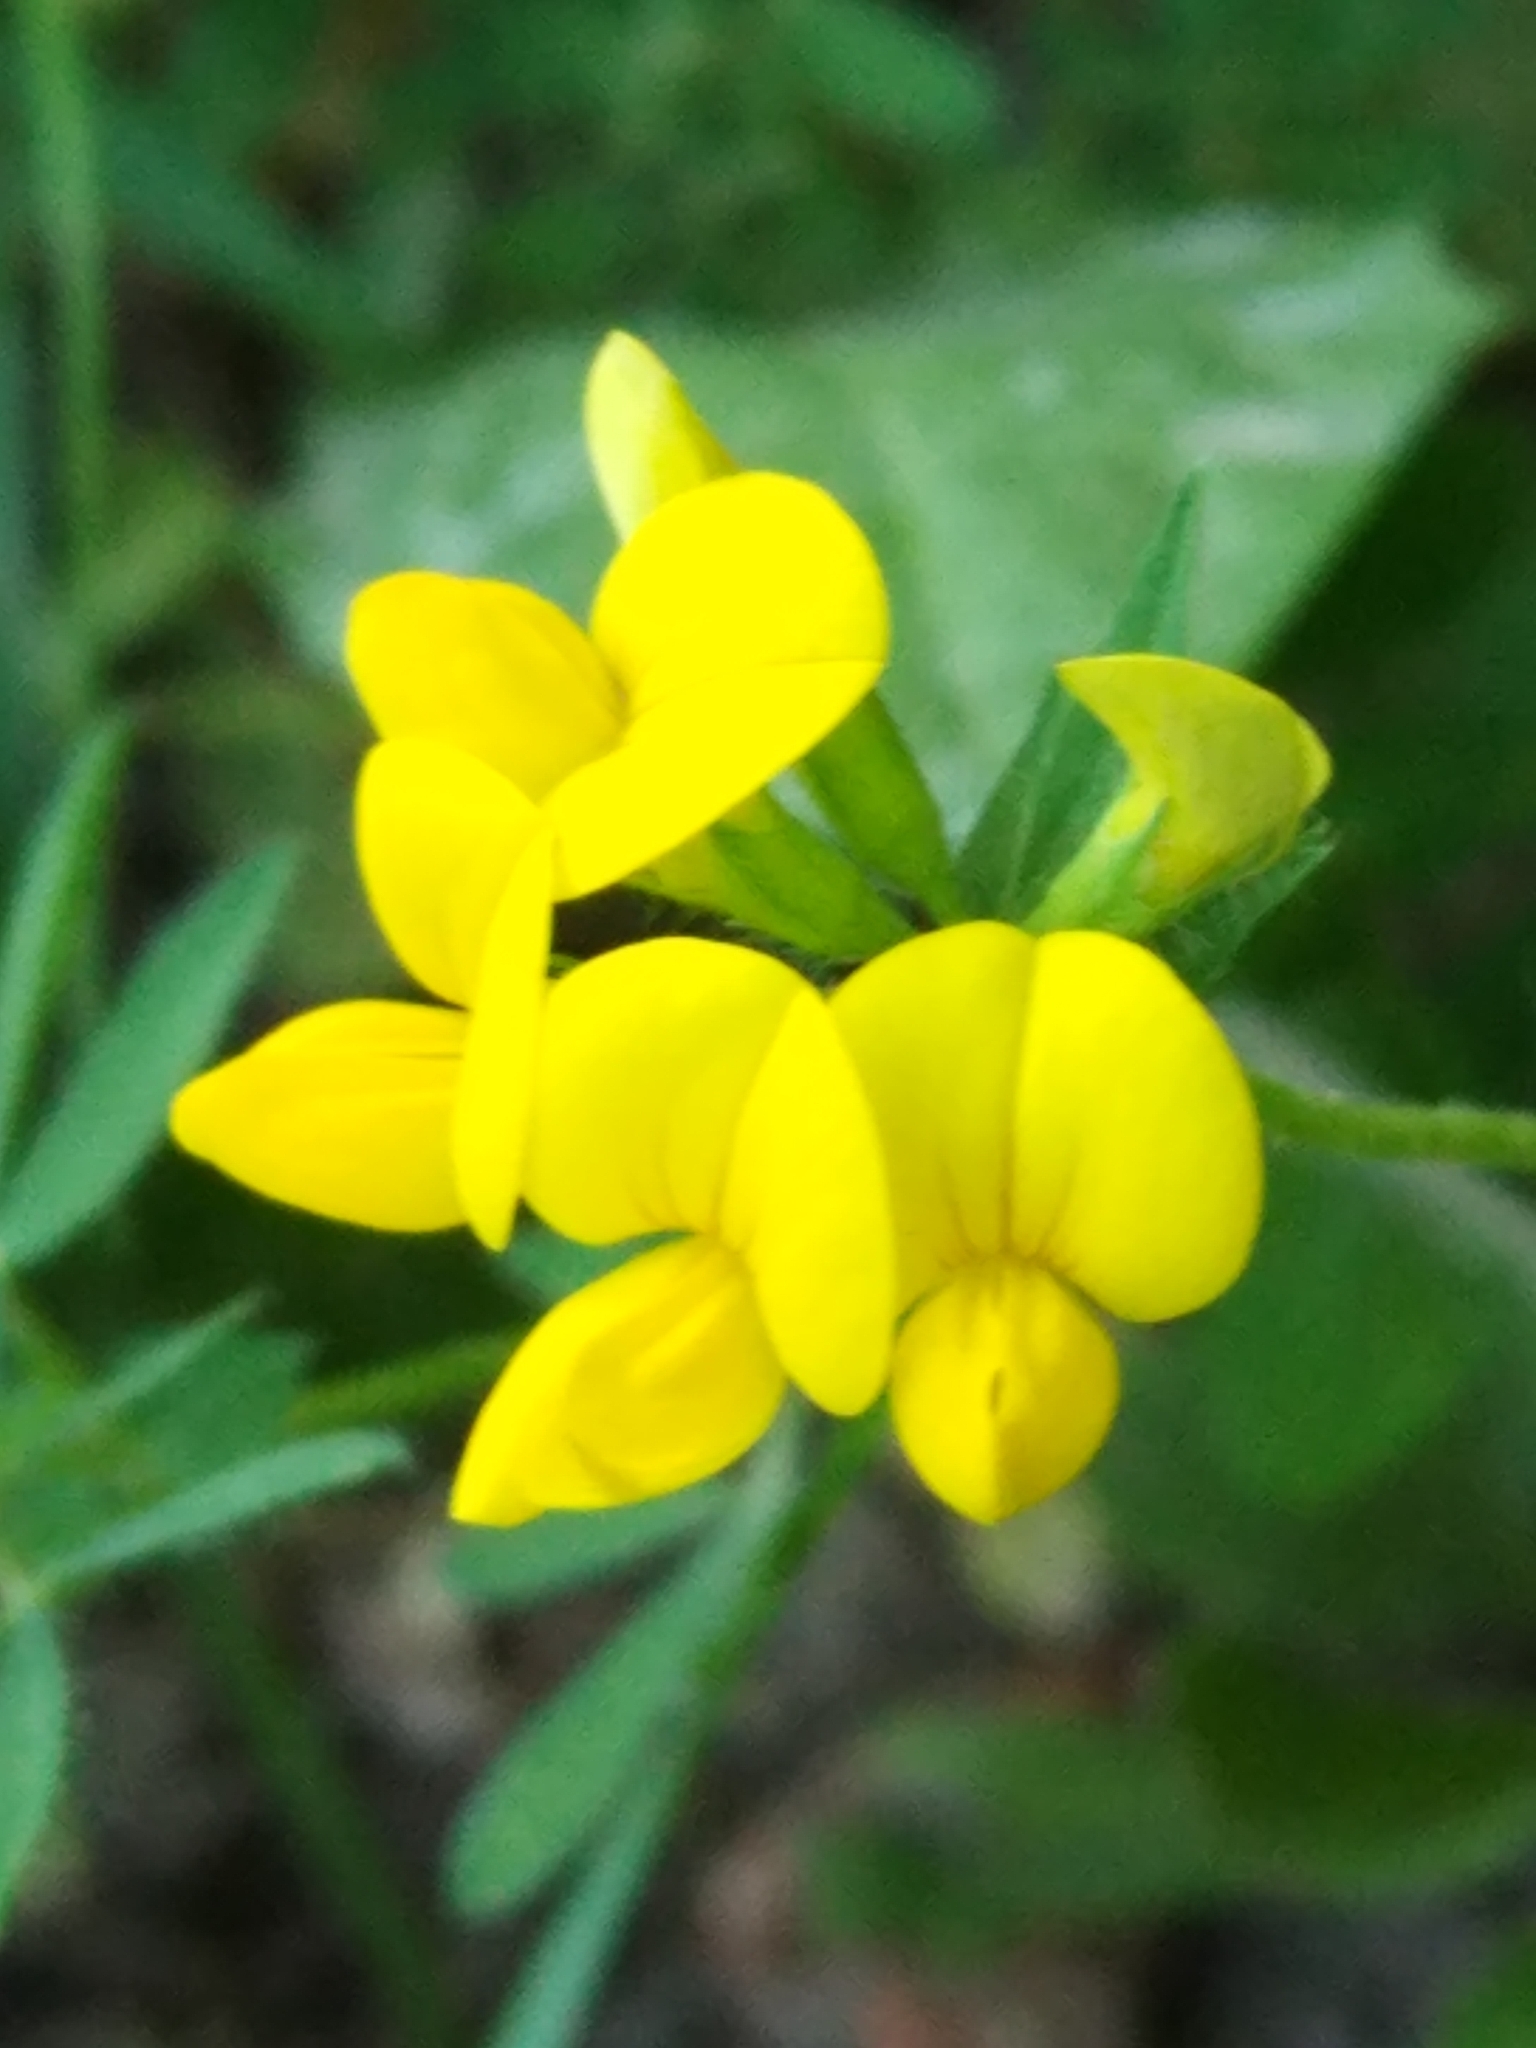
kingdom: Plantae
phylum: Tracheophyta
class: Magnoliopsida
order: Fabales
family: Fabaceae
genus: Lotus
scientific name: Lotus corniculatus
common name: Common bird's-foot-trefoil
